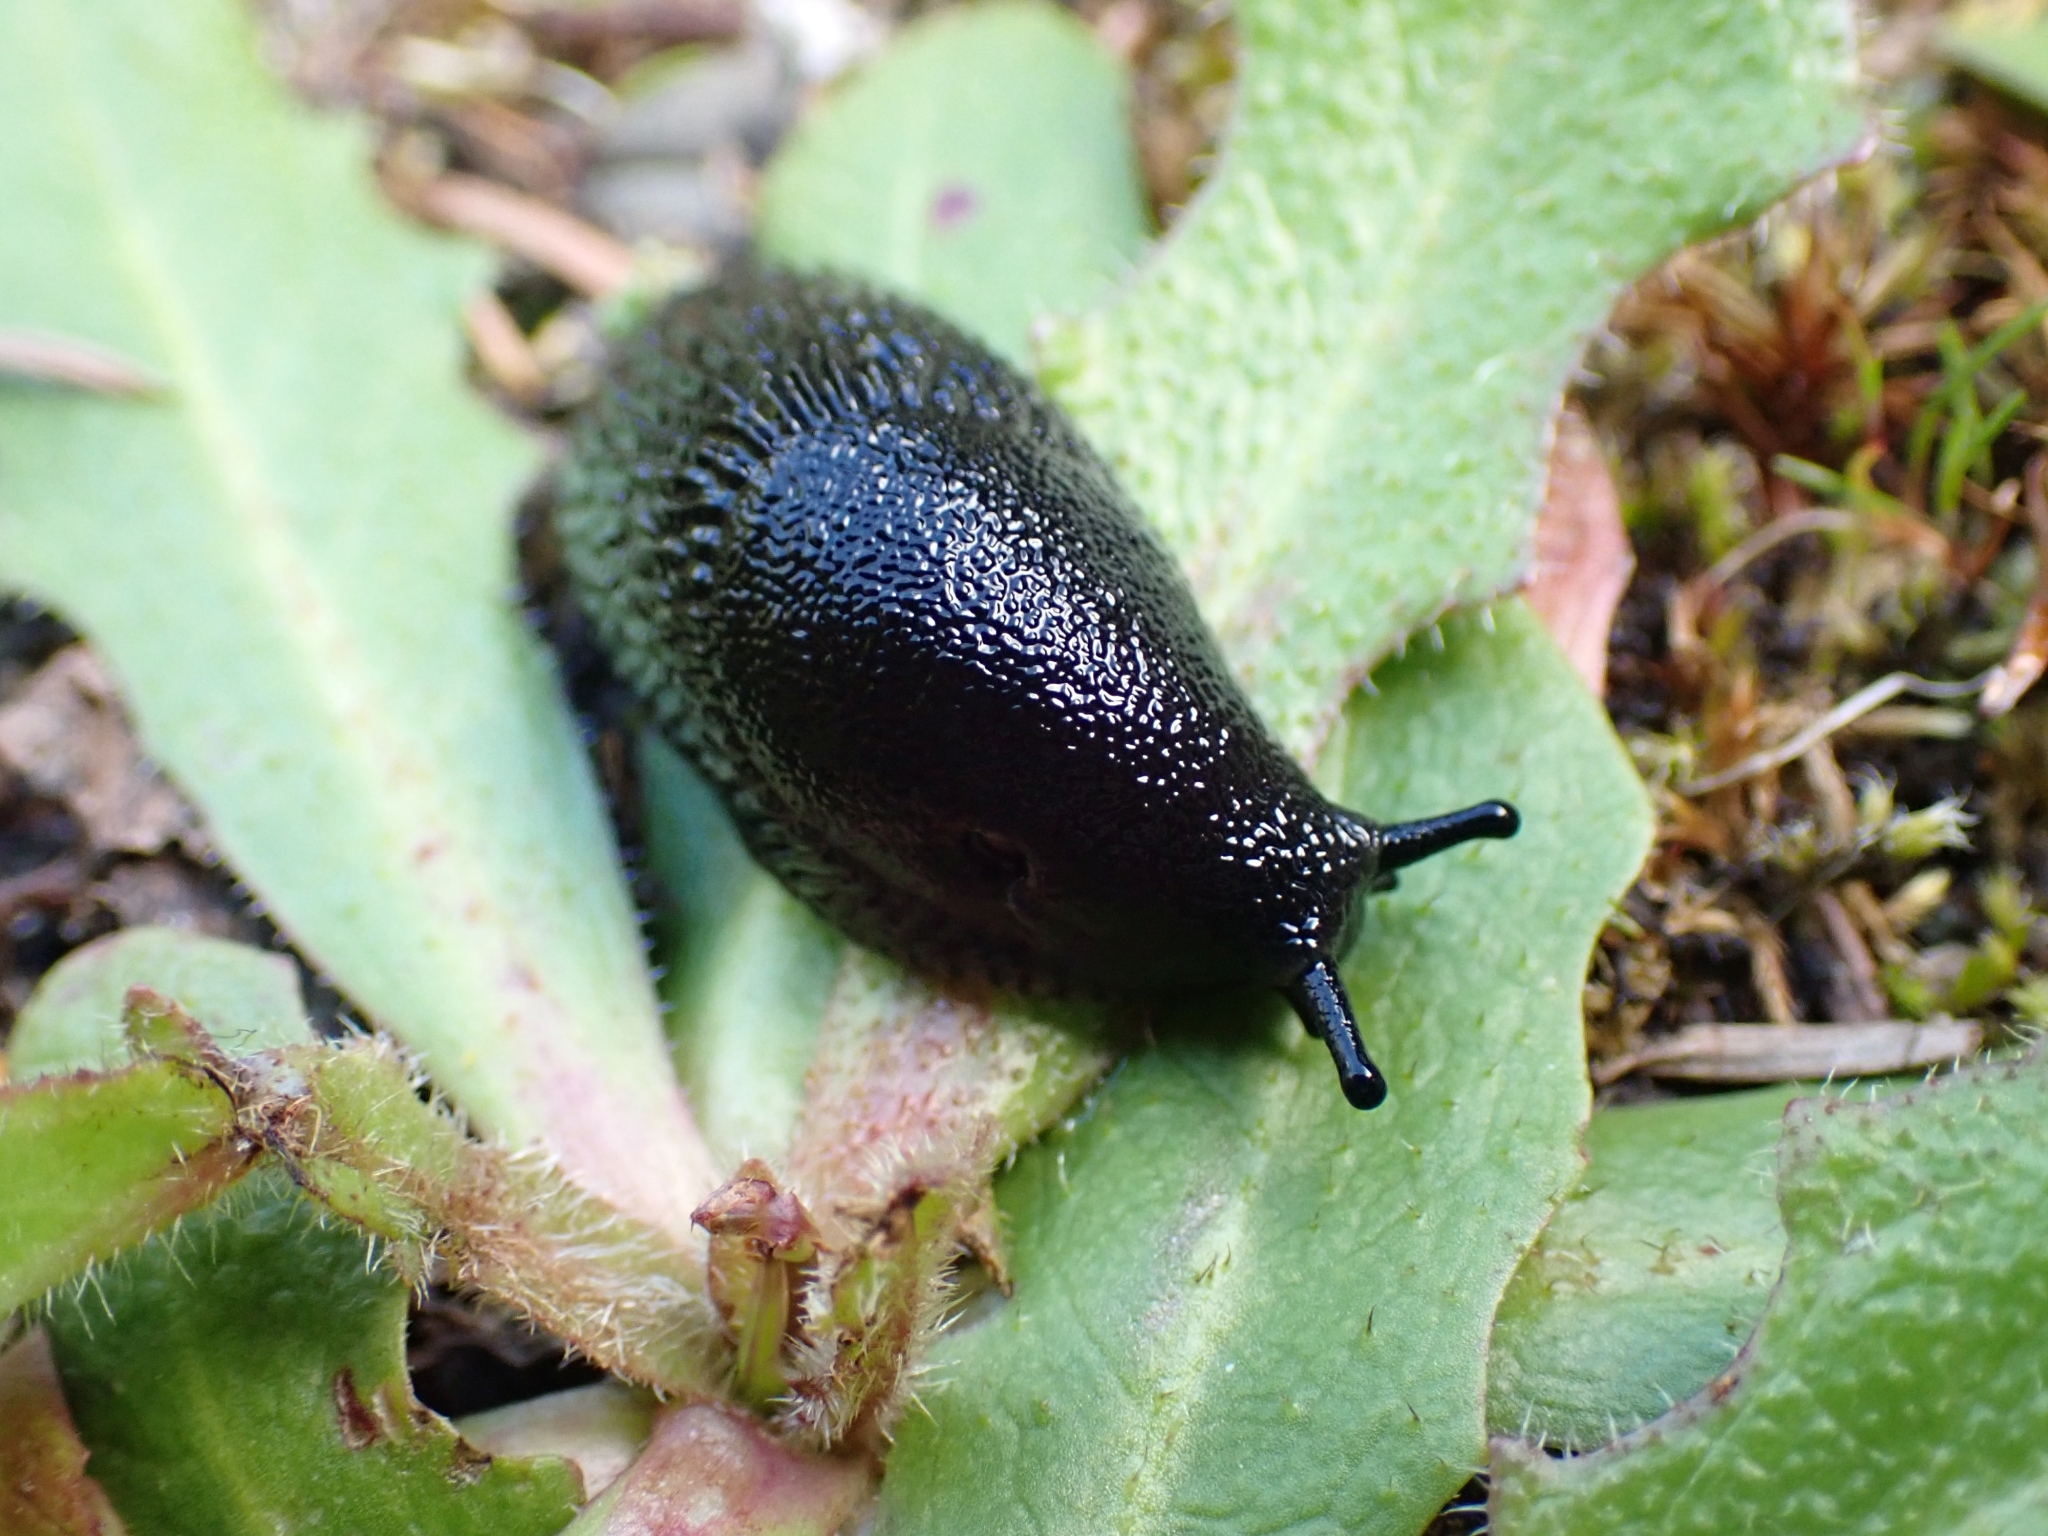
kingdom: Animalia
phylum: Mollusca
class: Gastropoda
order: Stylommatophora
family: Arionidae
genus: Arion
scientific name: Arion
